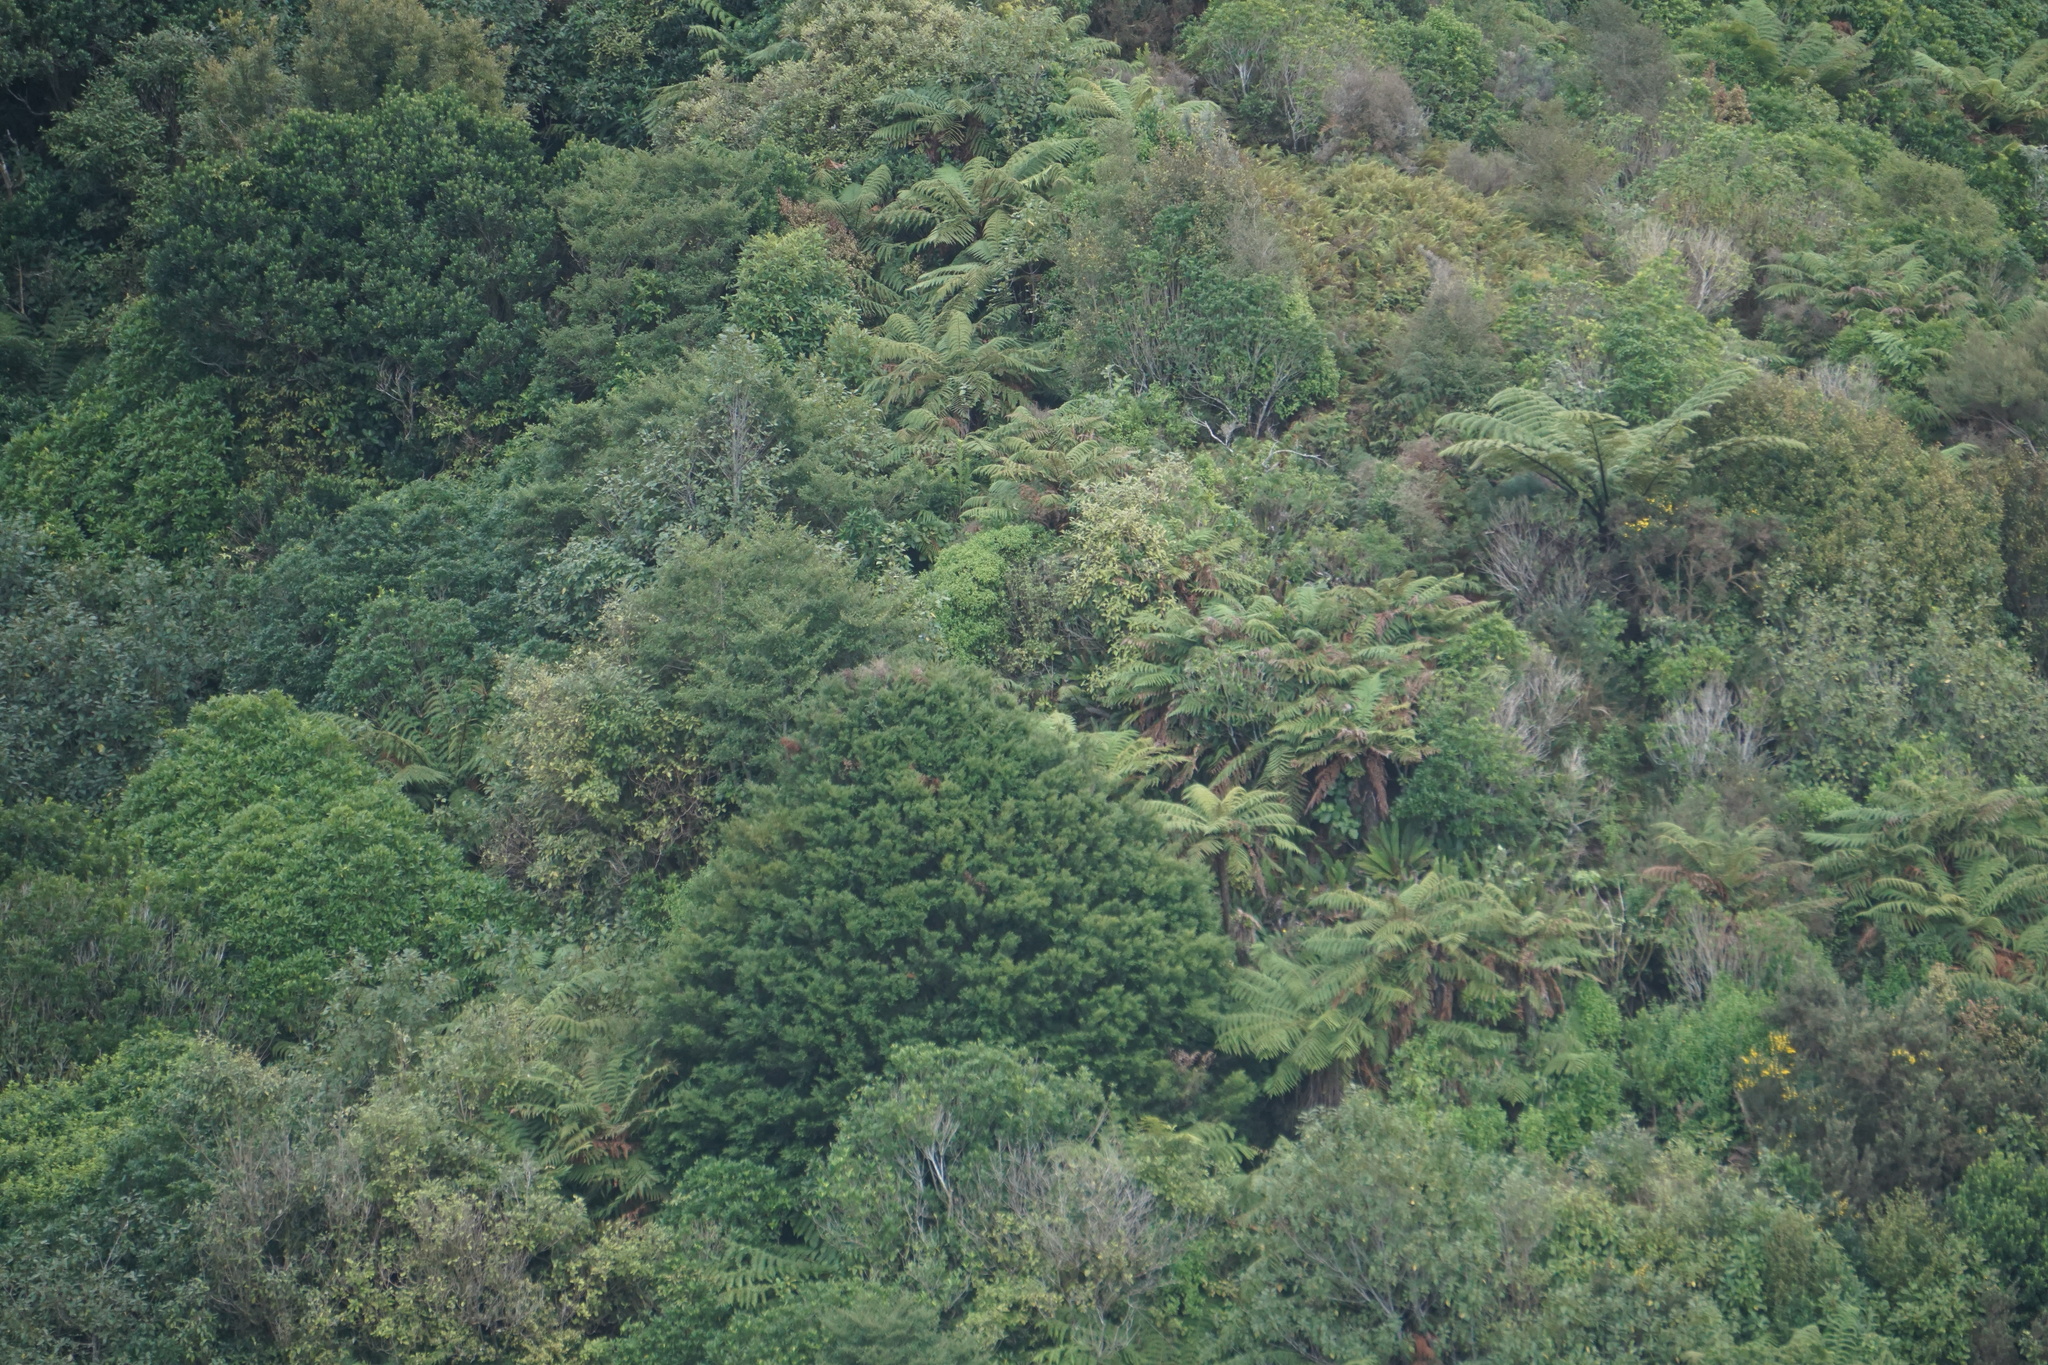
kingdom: Plantae
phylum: Tracheophyta
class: Pinopsida
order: Pinales
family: Podocarpaceae
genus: Prumnopitys
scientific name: Prumnopitys ferruginea
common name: Brown pine
